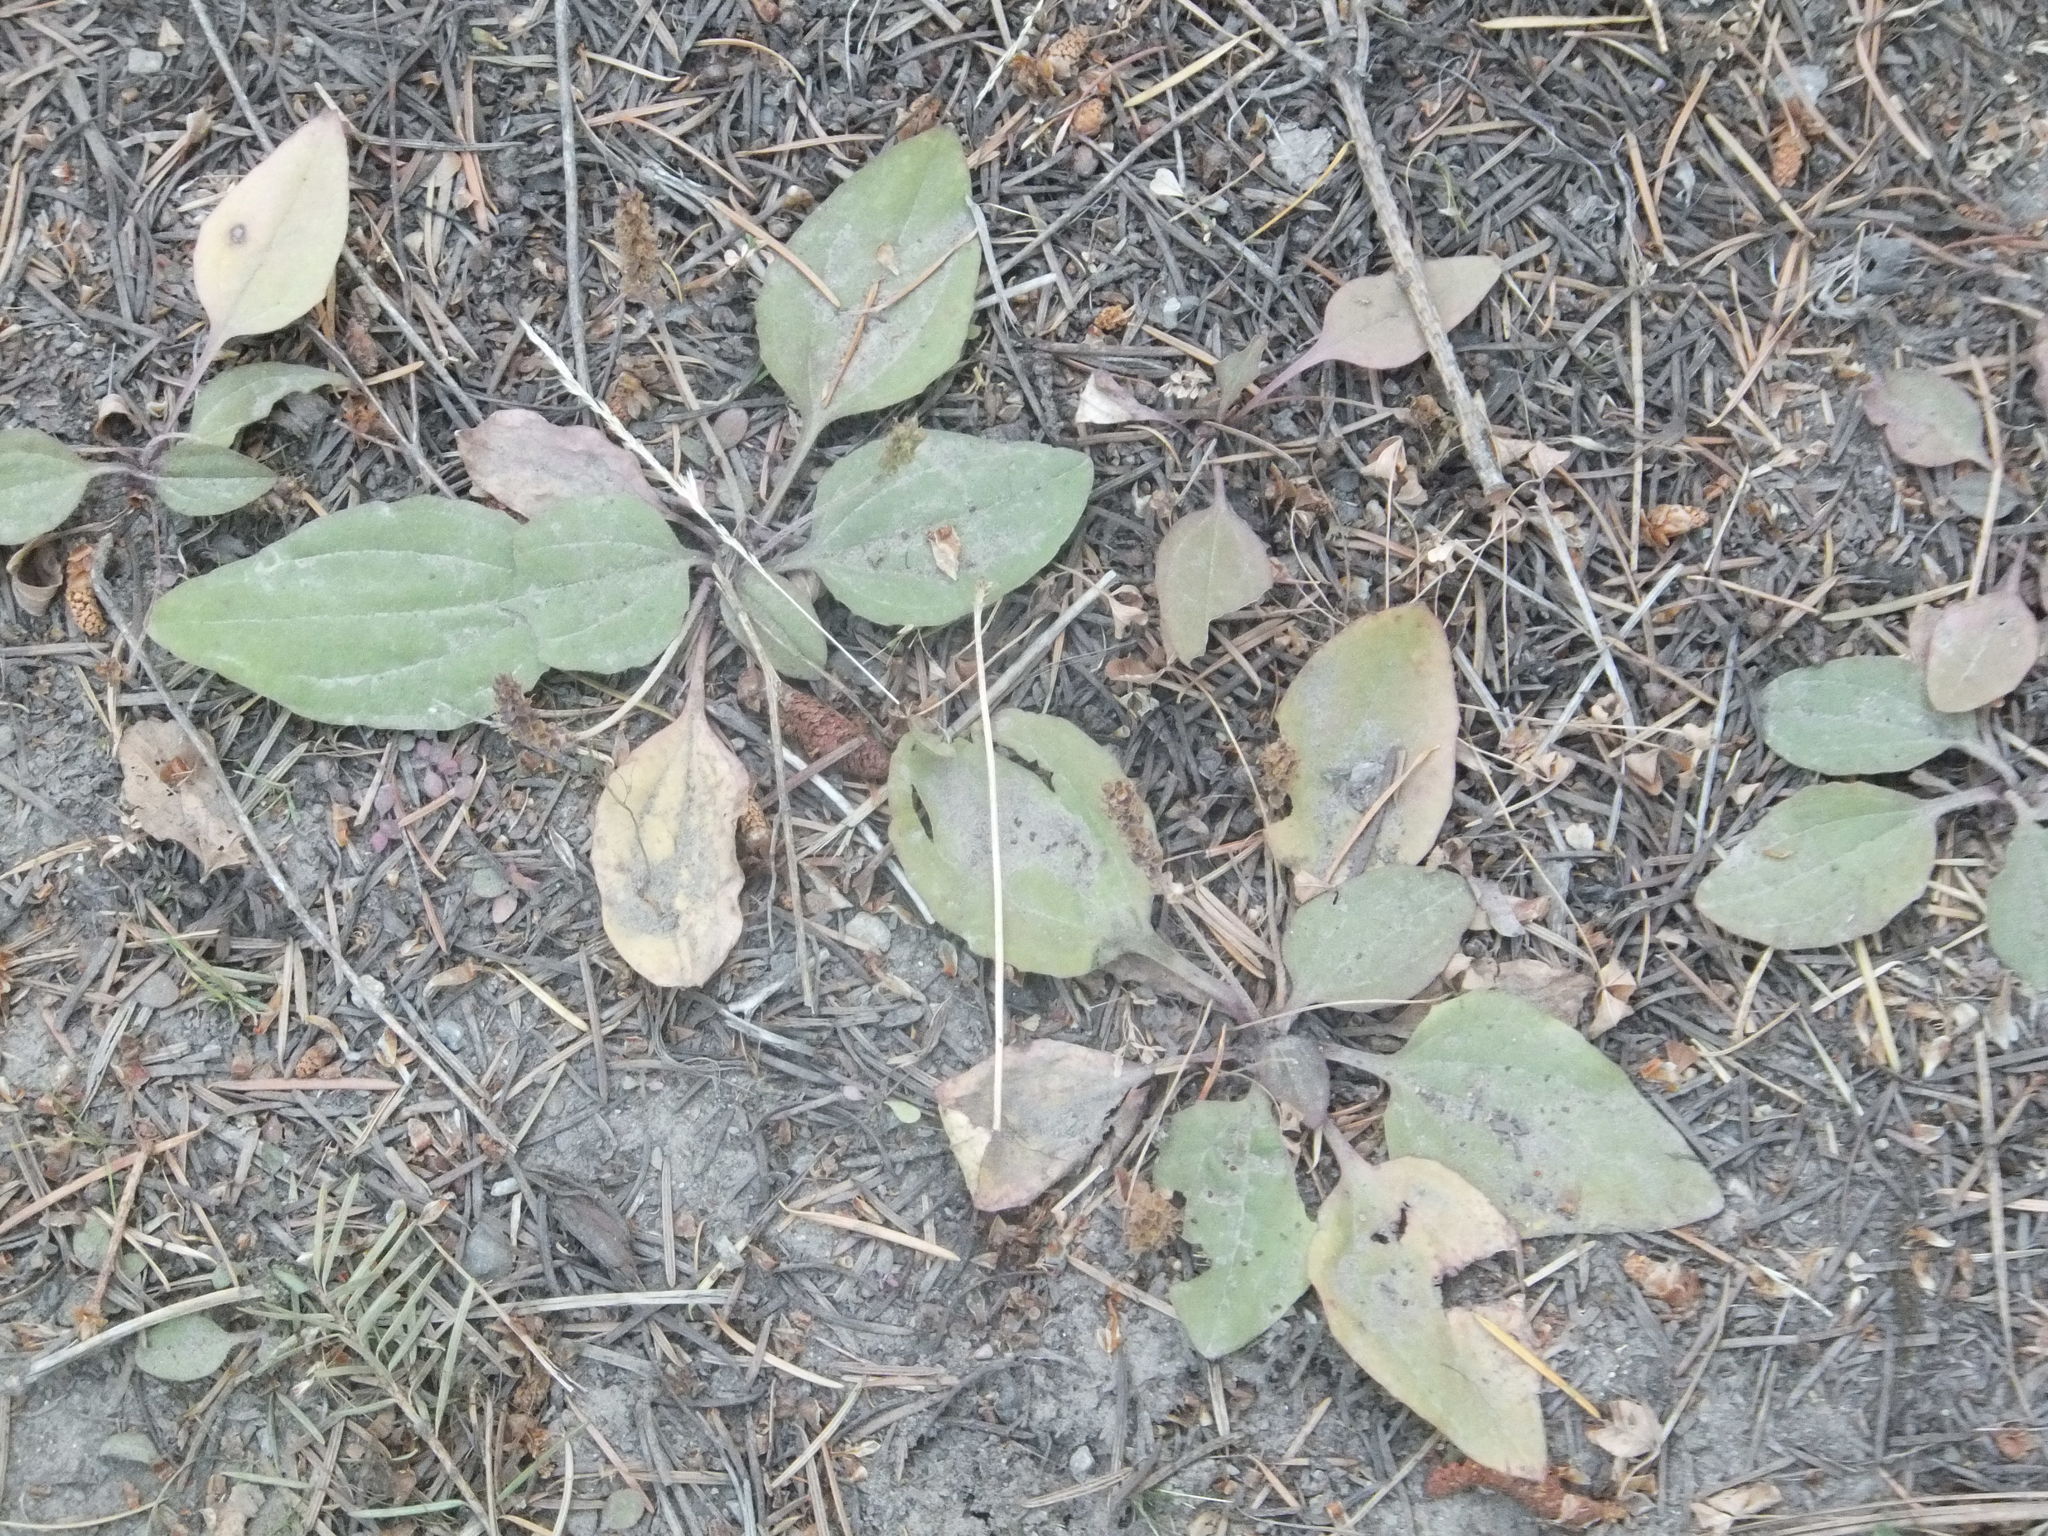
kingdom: Plantae
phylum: Tracheophyta
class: Magnoliopsida
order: Lamiales
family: Plantaginaceae
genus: Plantago
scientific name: Plantago major
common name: Common plantain
